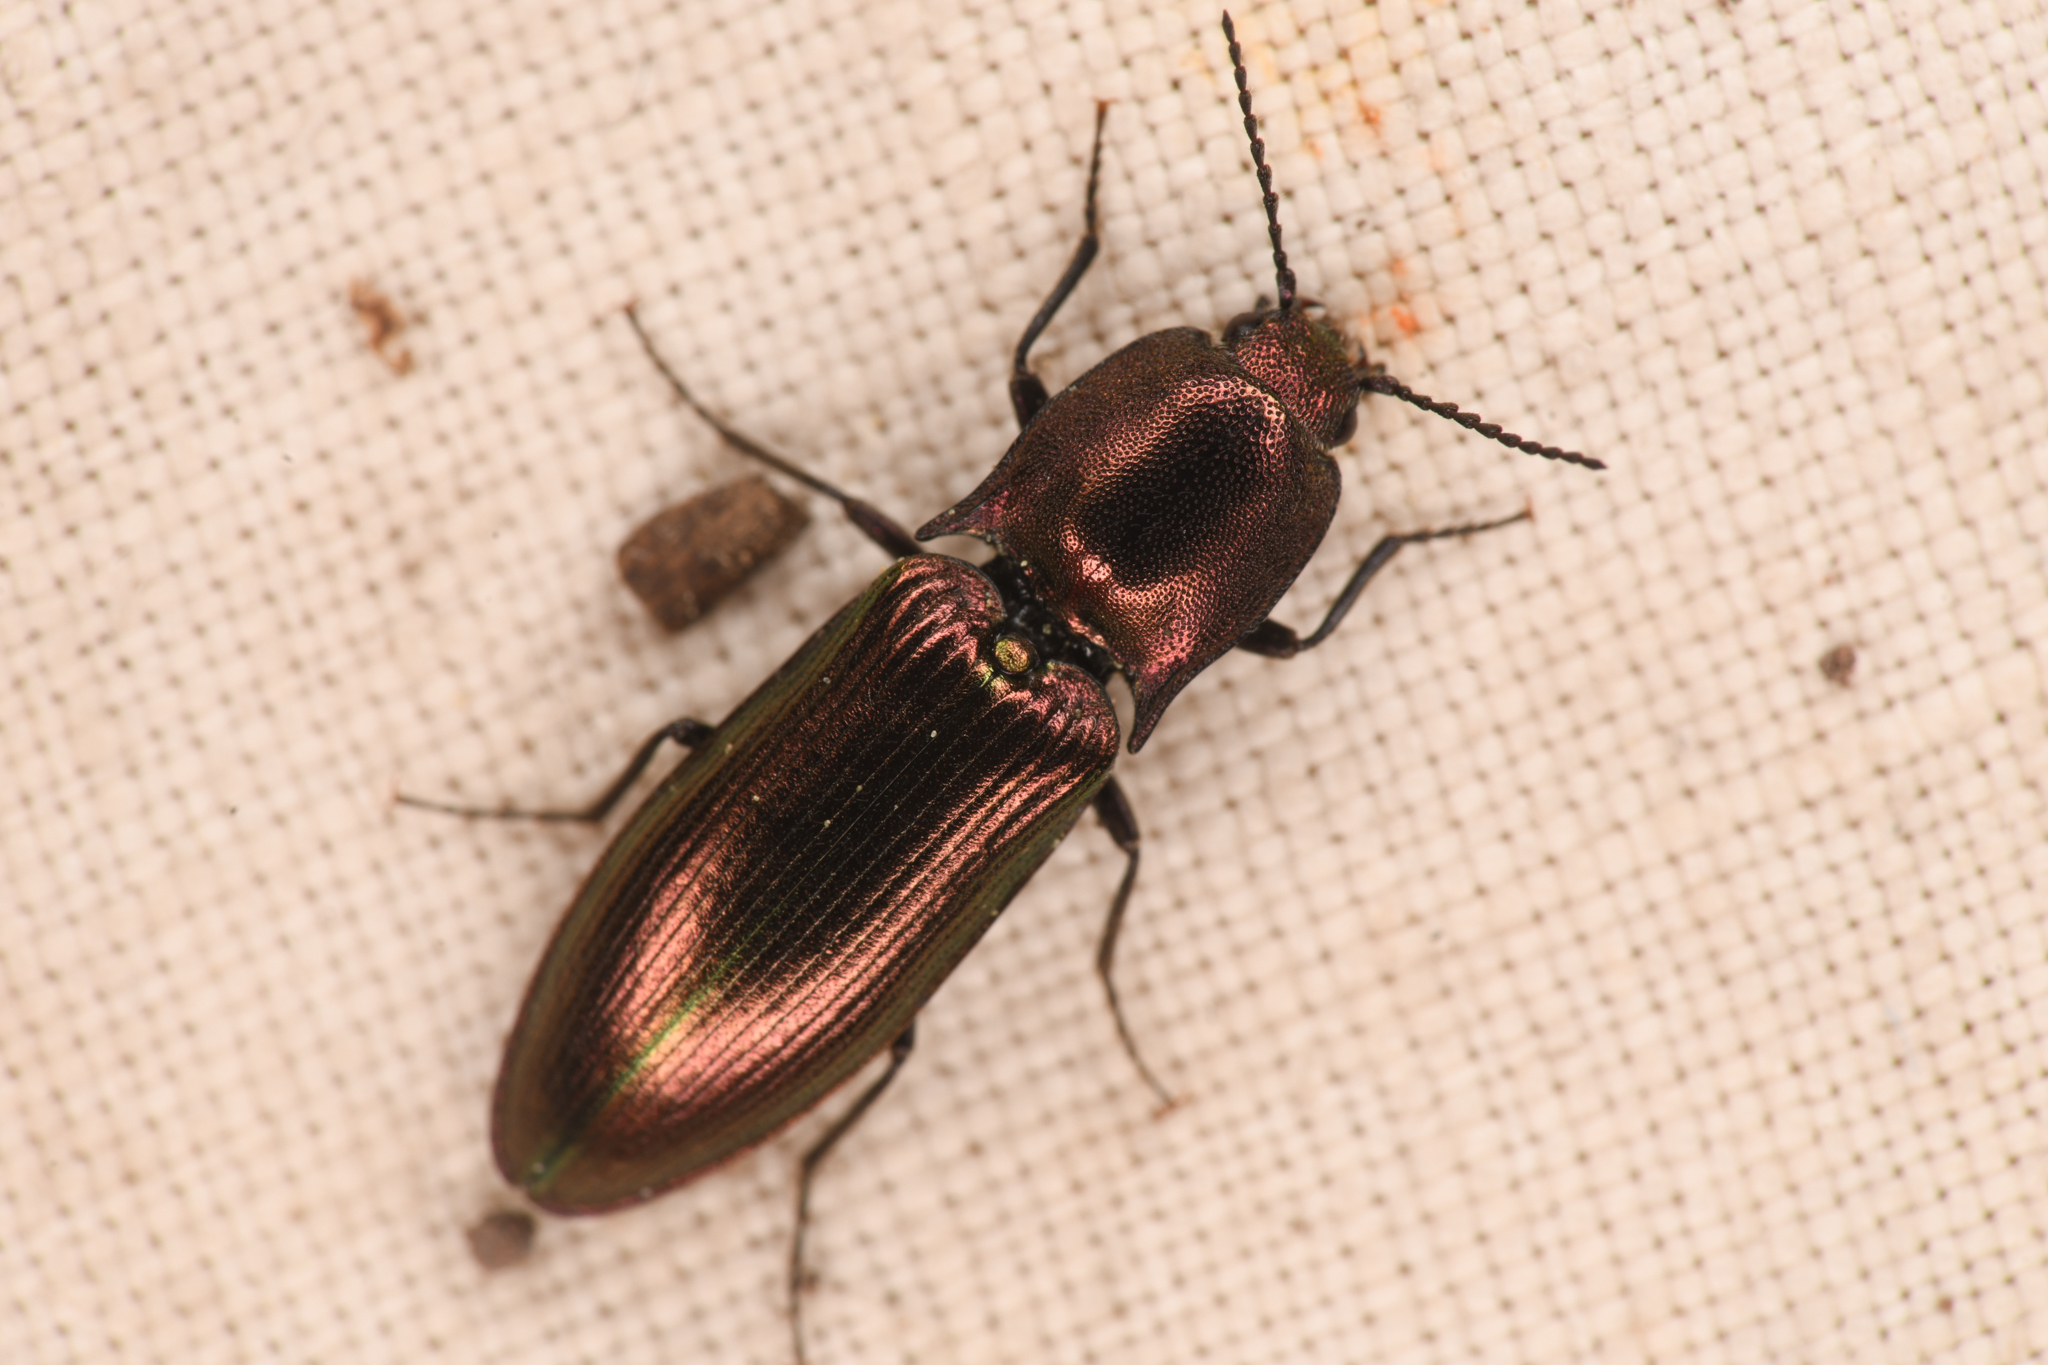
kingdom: Animalia
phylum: Arthropoda
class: Insecta
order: Coleoptera
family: Elateridae
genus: Nitidolimonius
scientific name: Nitidolimonius resplendens
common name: Resplendent click beetle
